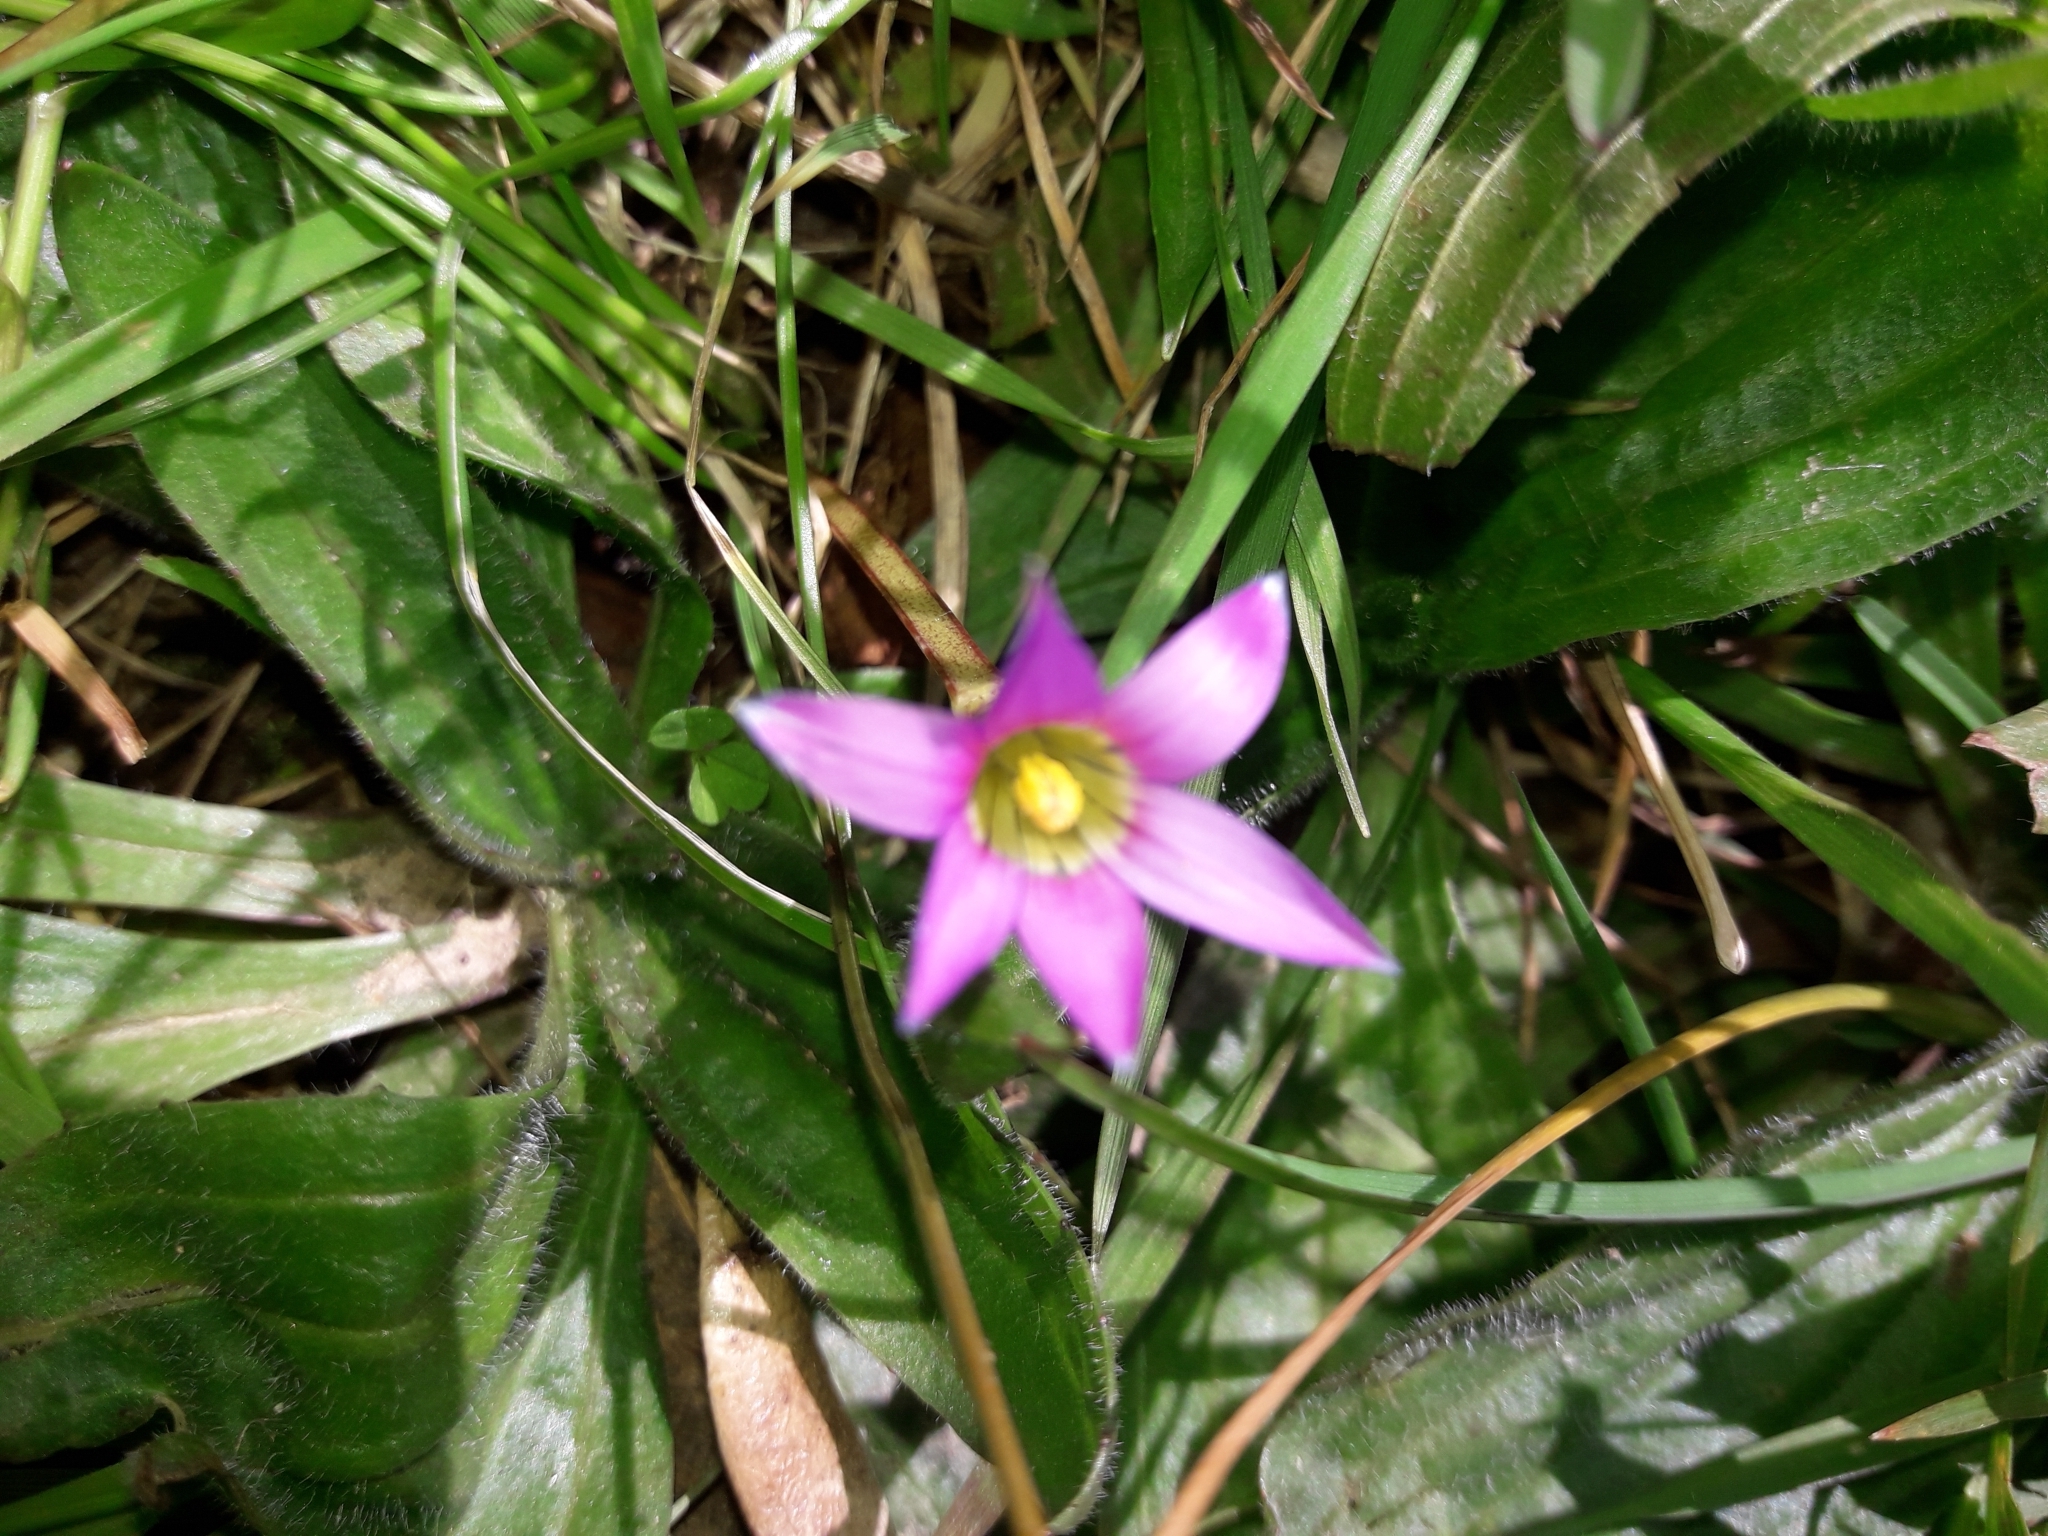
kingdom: Plantae
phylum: Tracheophyta
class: Liliopsida
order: Asparagales
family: Iridaceae
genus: Romulea
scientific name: Romulea rosea
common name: Oniongrass
